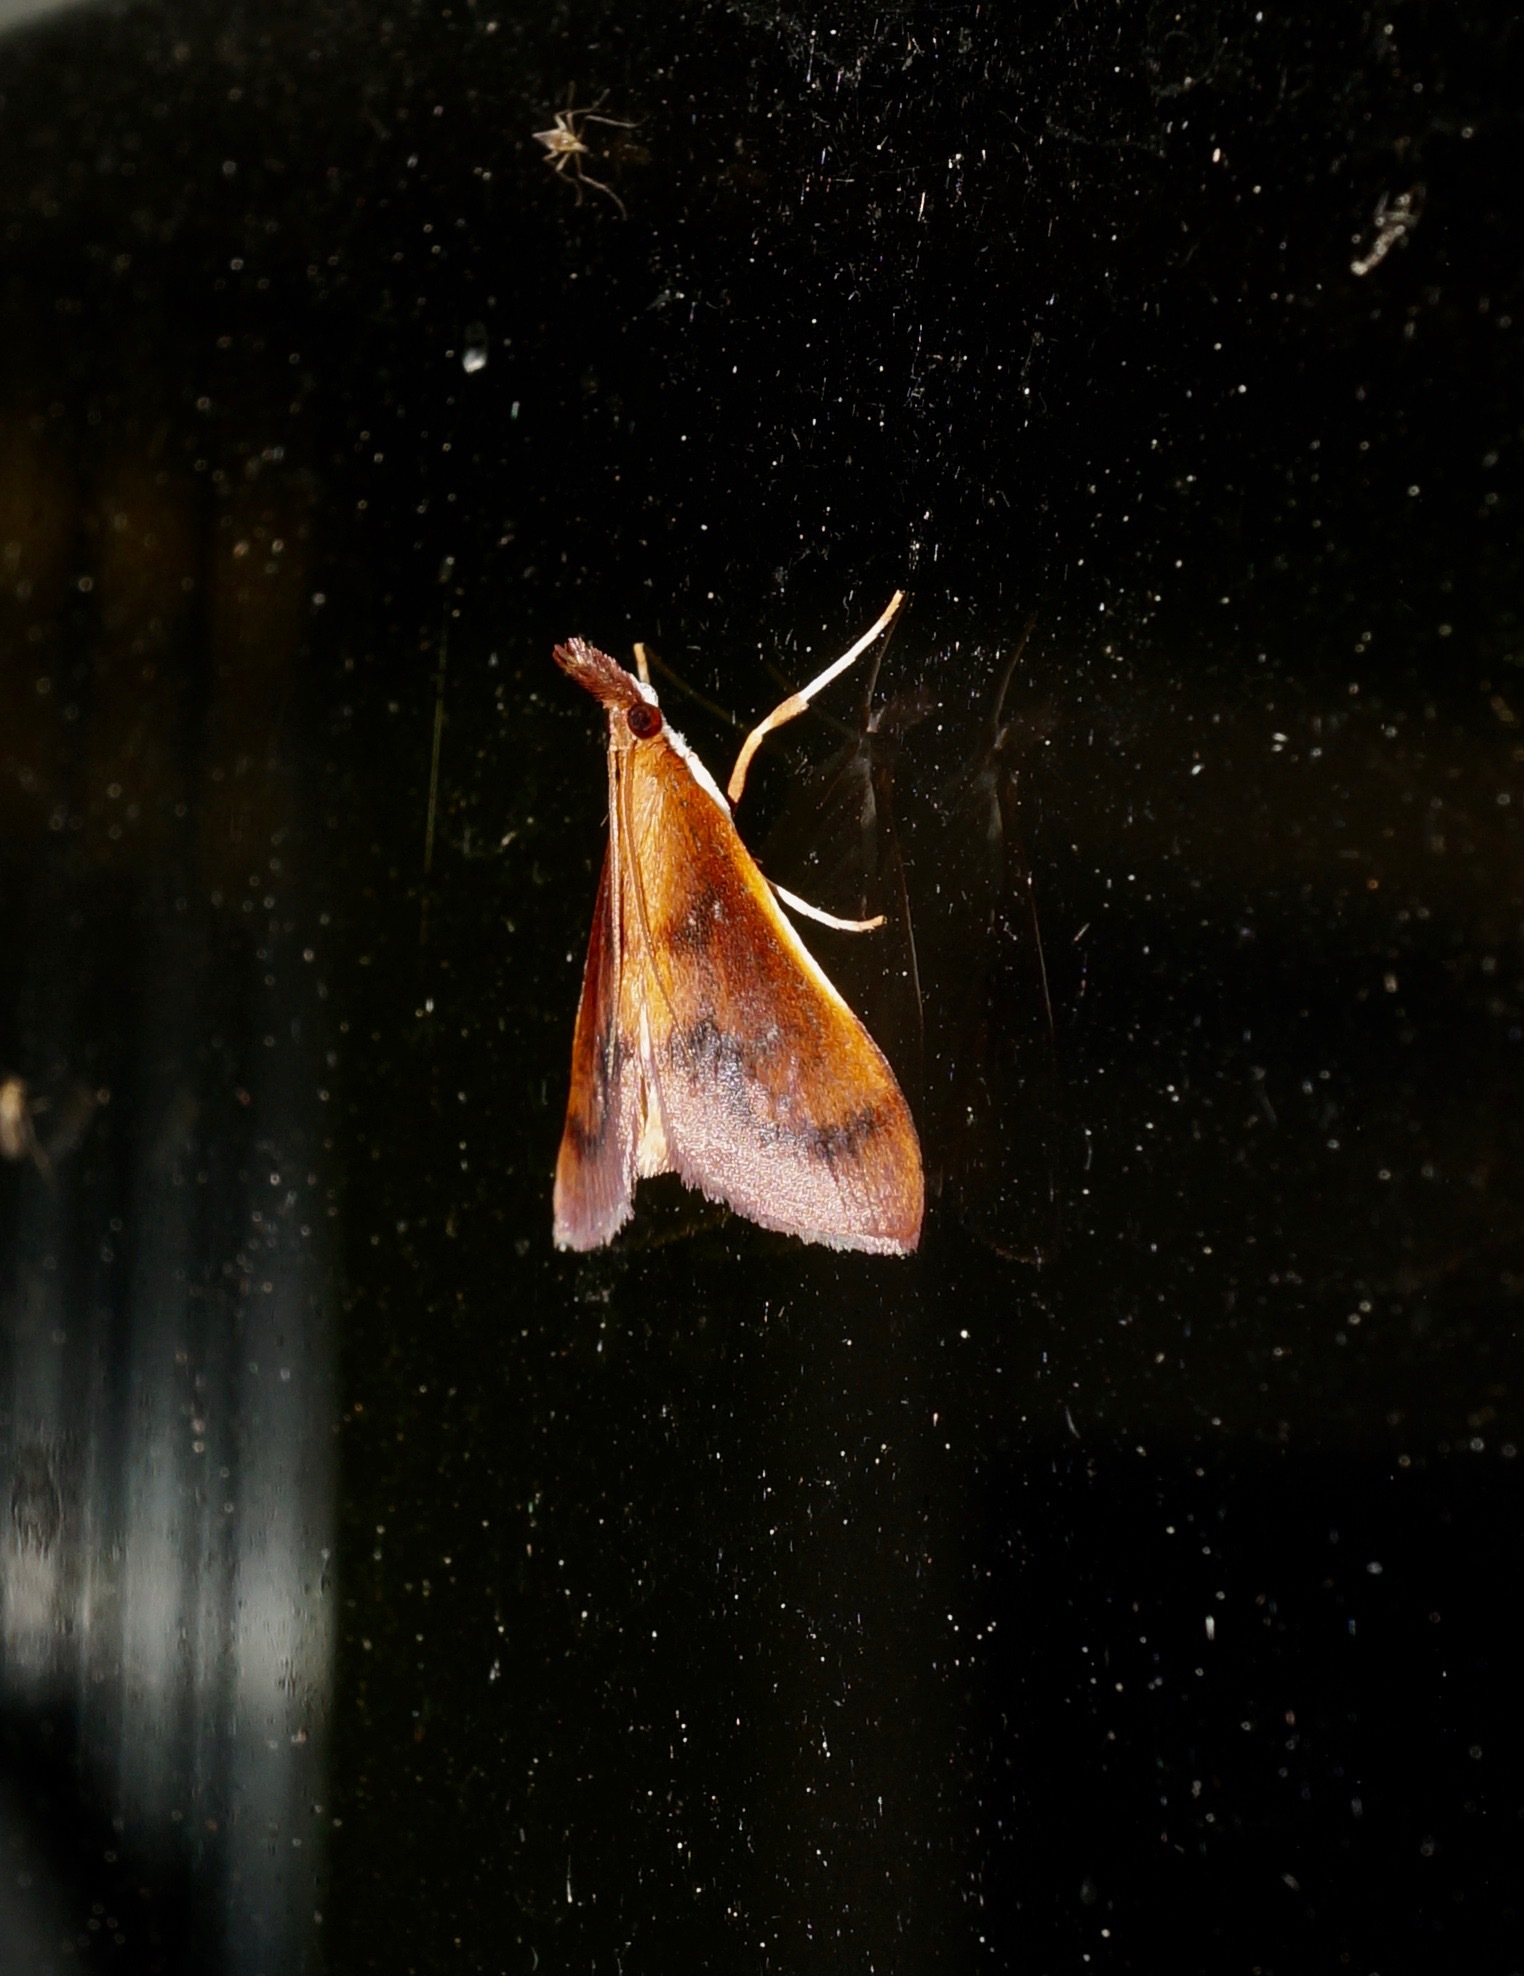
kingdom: Animalia
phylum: Arthropoda
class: Insecta
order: Lepidoptera
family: Crambidae
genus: Udea
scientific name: Udea daiclesalis
